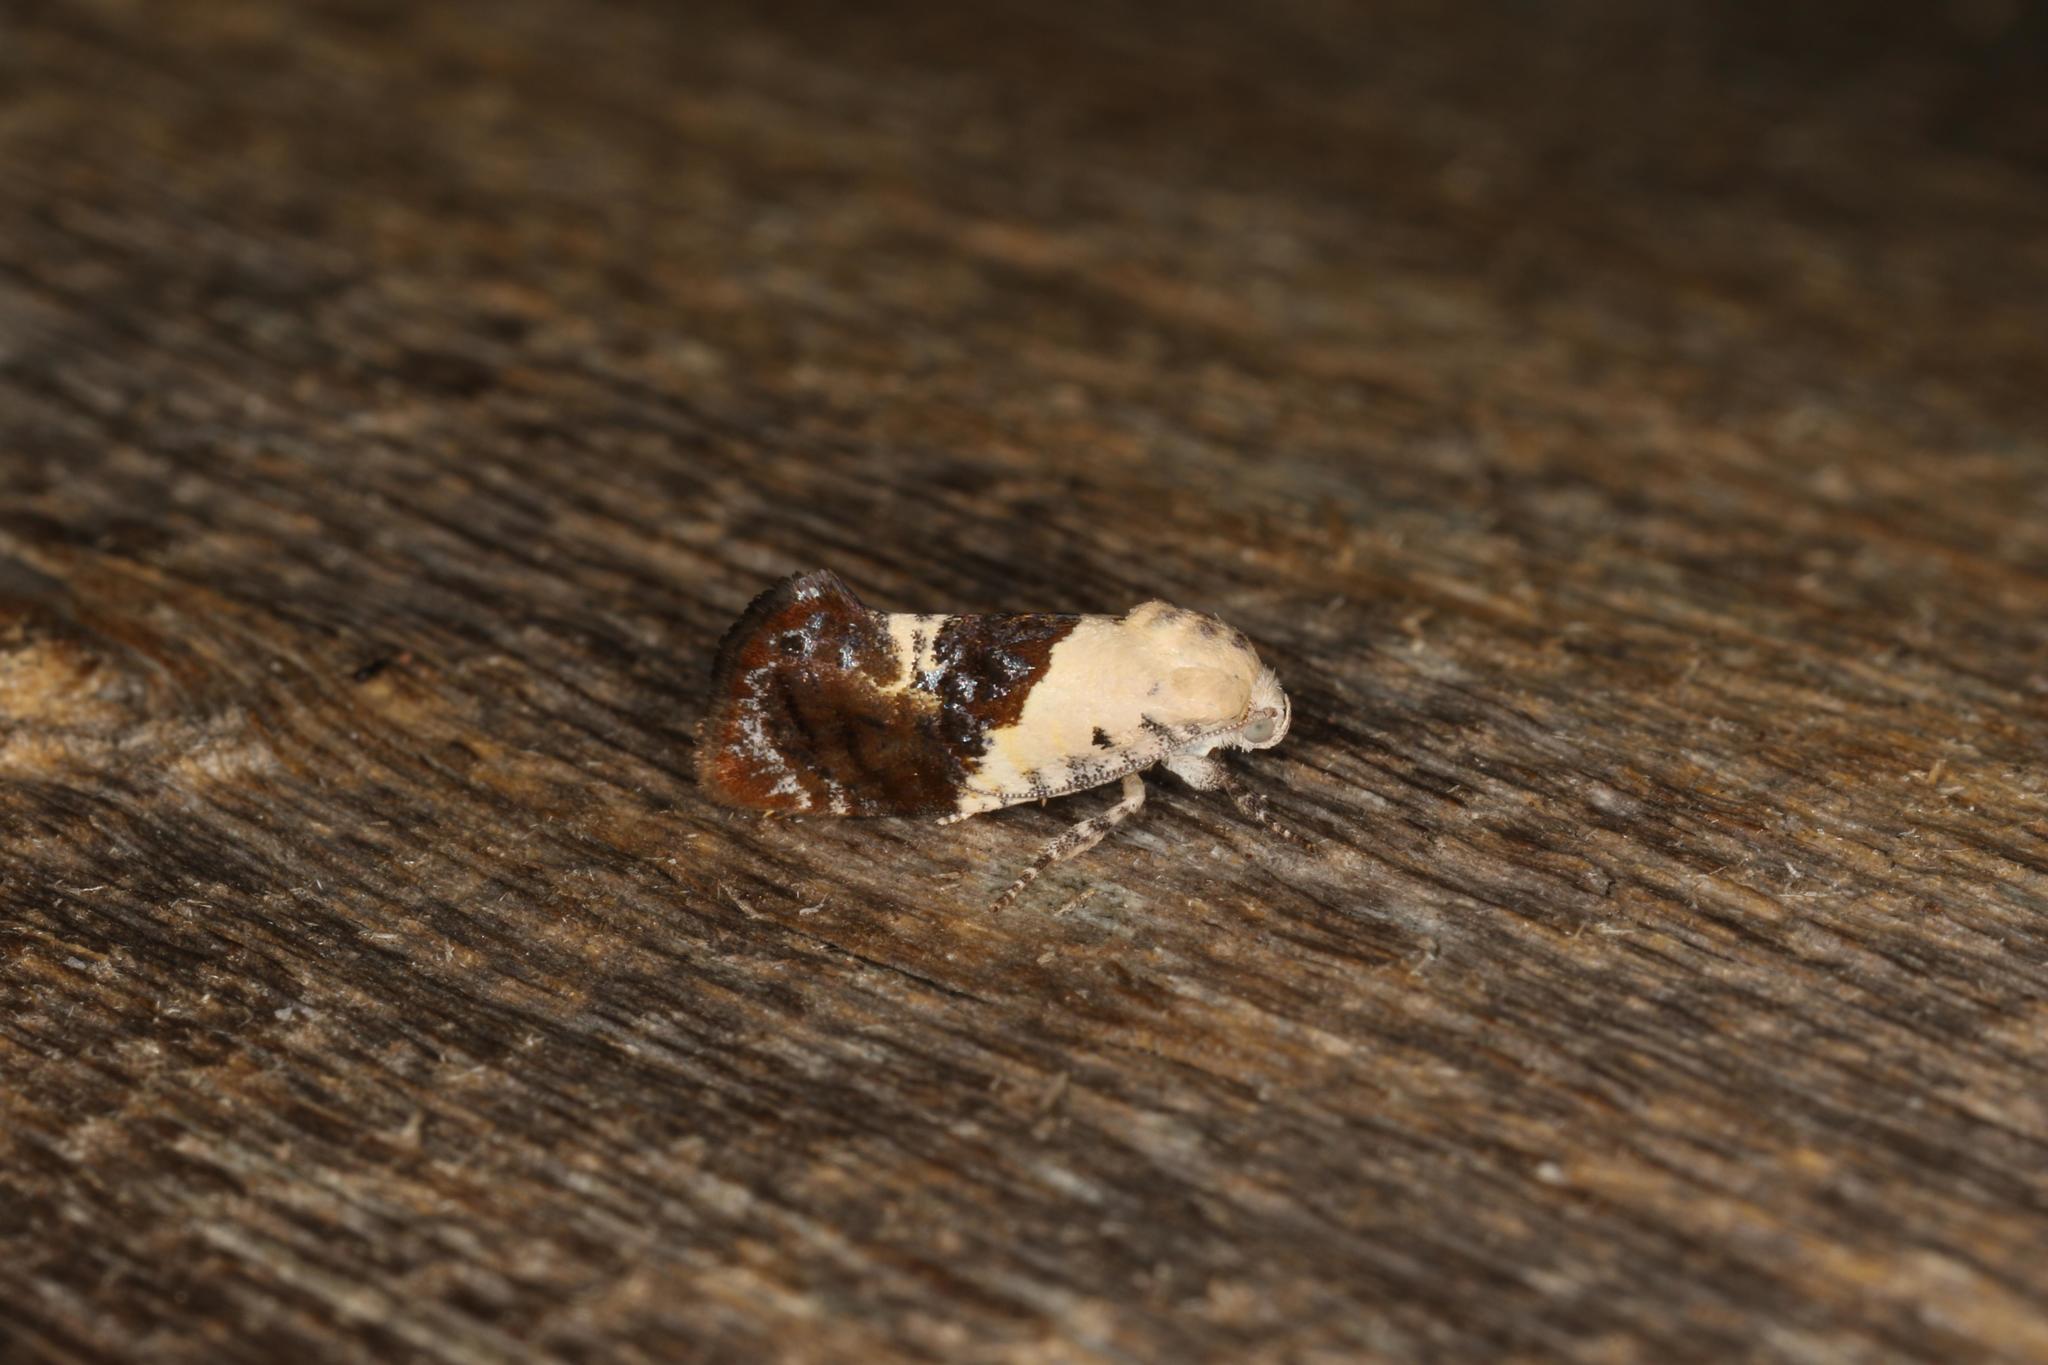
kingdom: Animalia
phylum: Arthropoda
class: Insecta
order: Lepidoptera
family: Depressariidae
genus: Hypertropha
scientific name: Hypertropha chlaenota
